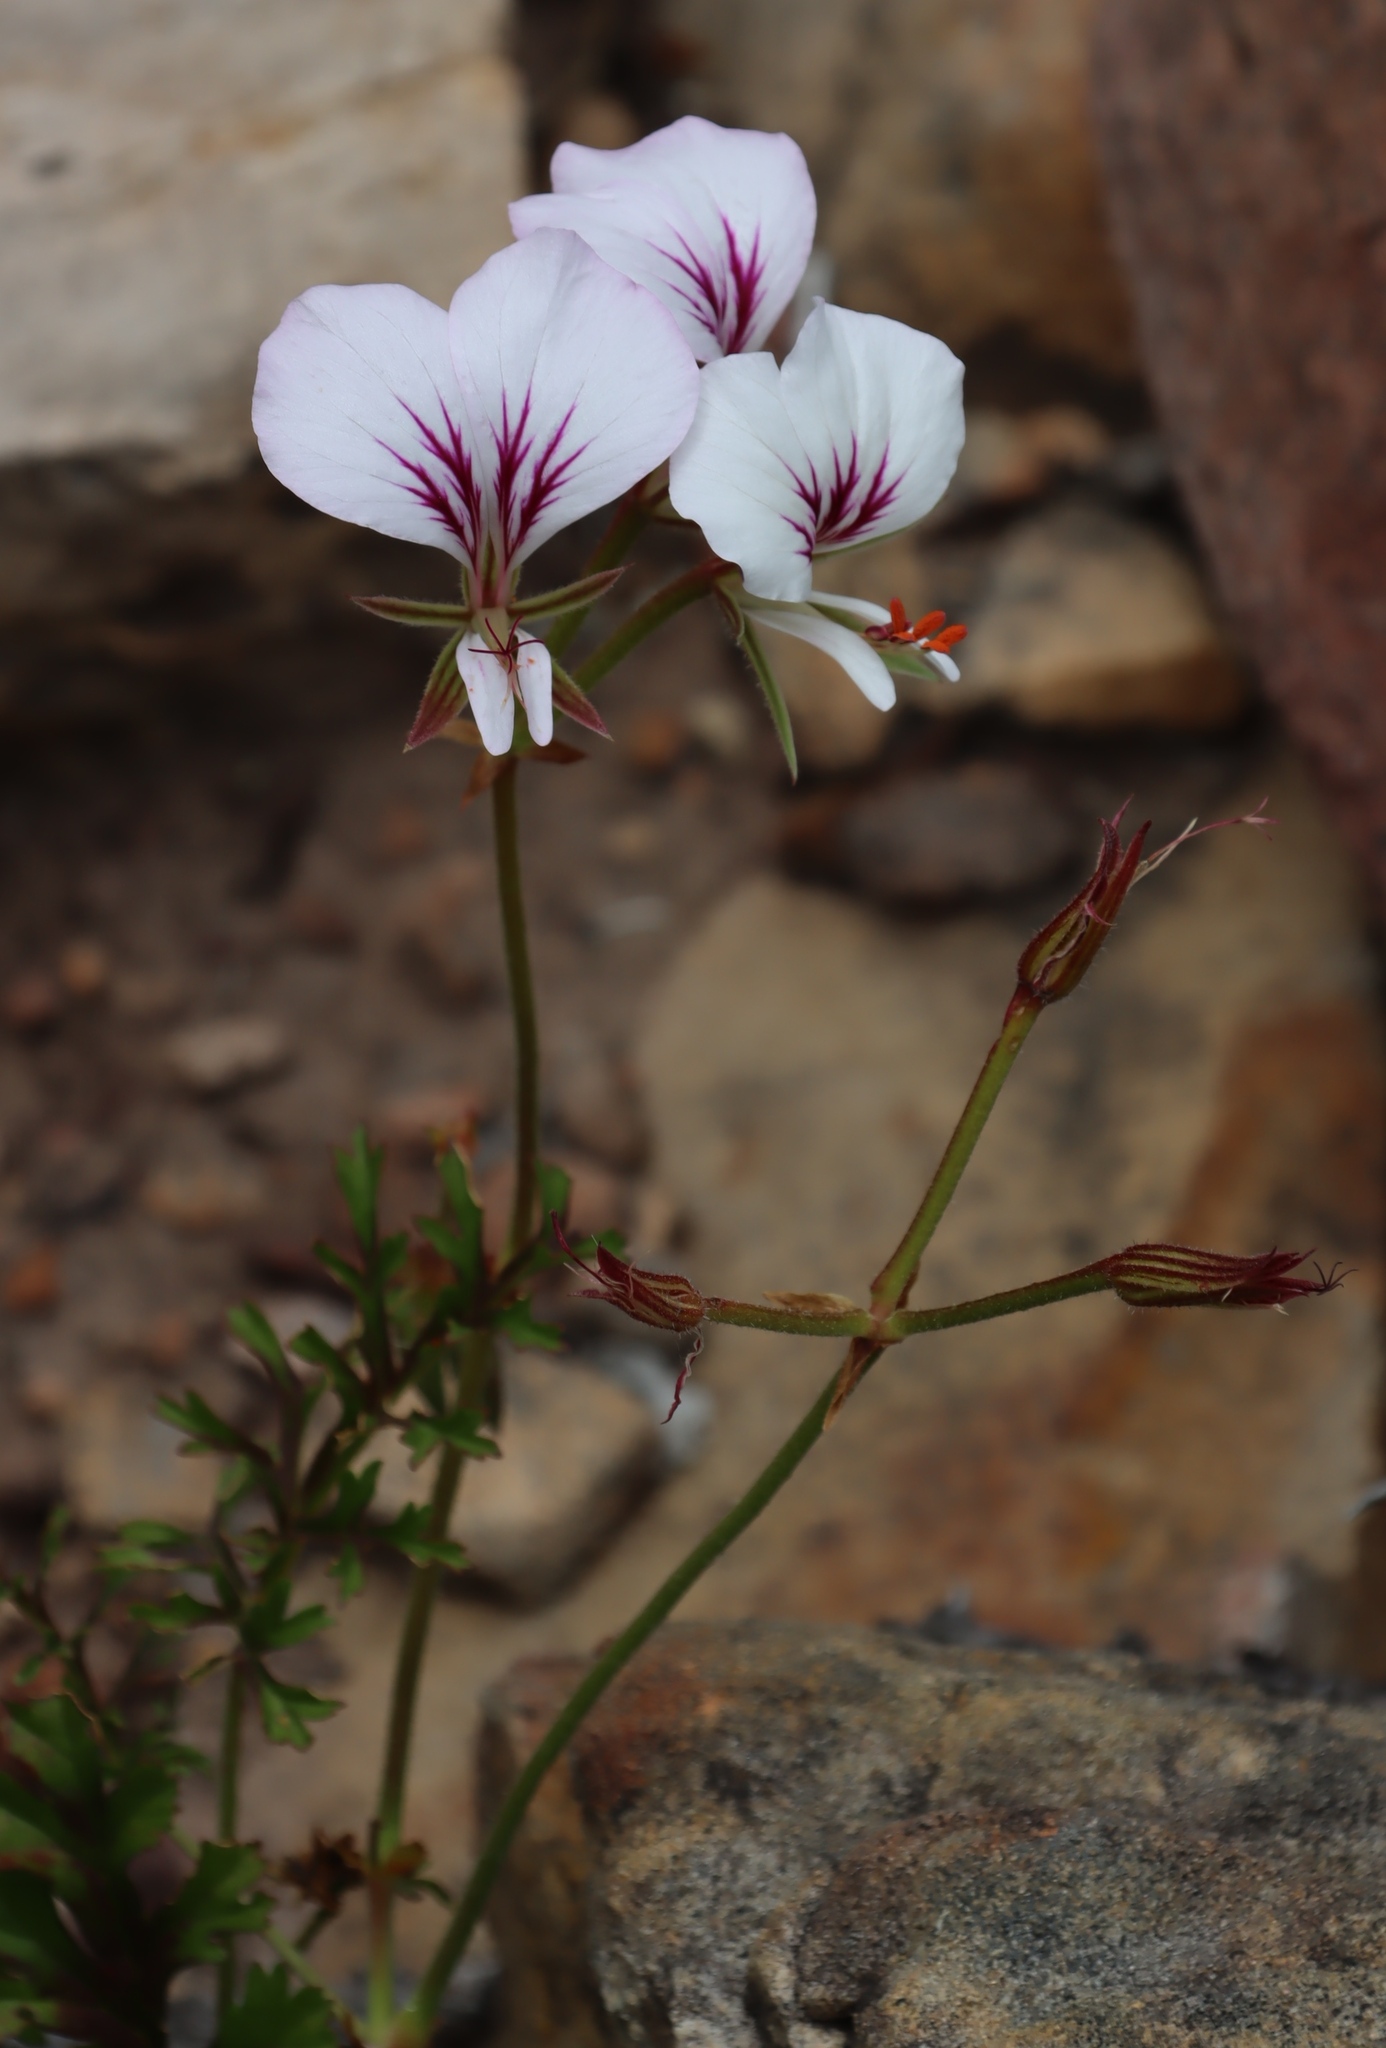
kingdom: Plantae
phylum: Tracheophyta
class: Magnoliopsida
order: Geraniales
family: Geraniaceae
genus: Pelargonium
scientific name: Pelargonium longicaule
